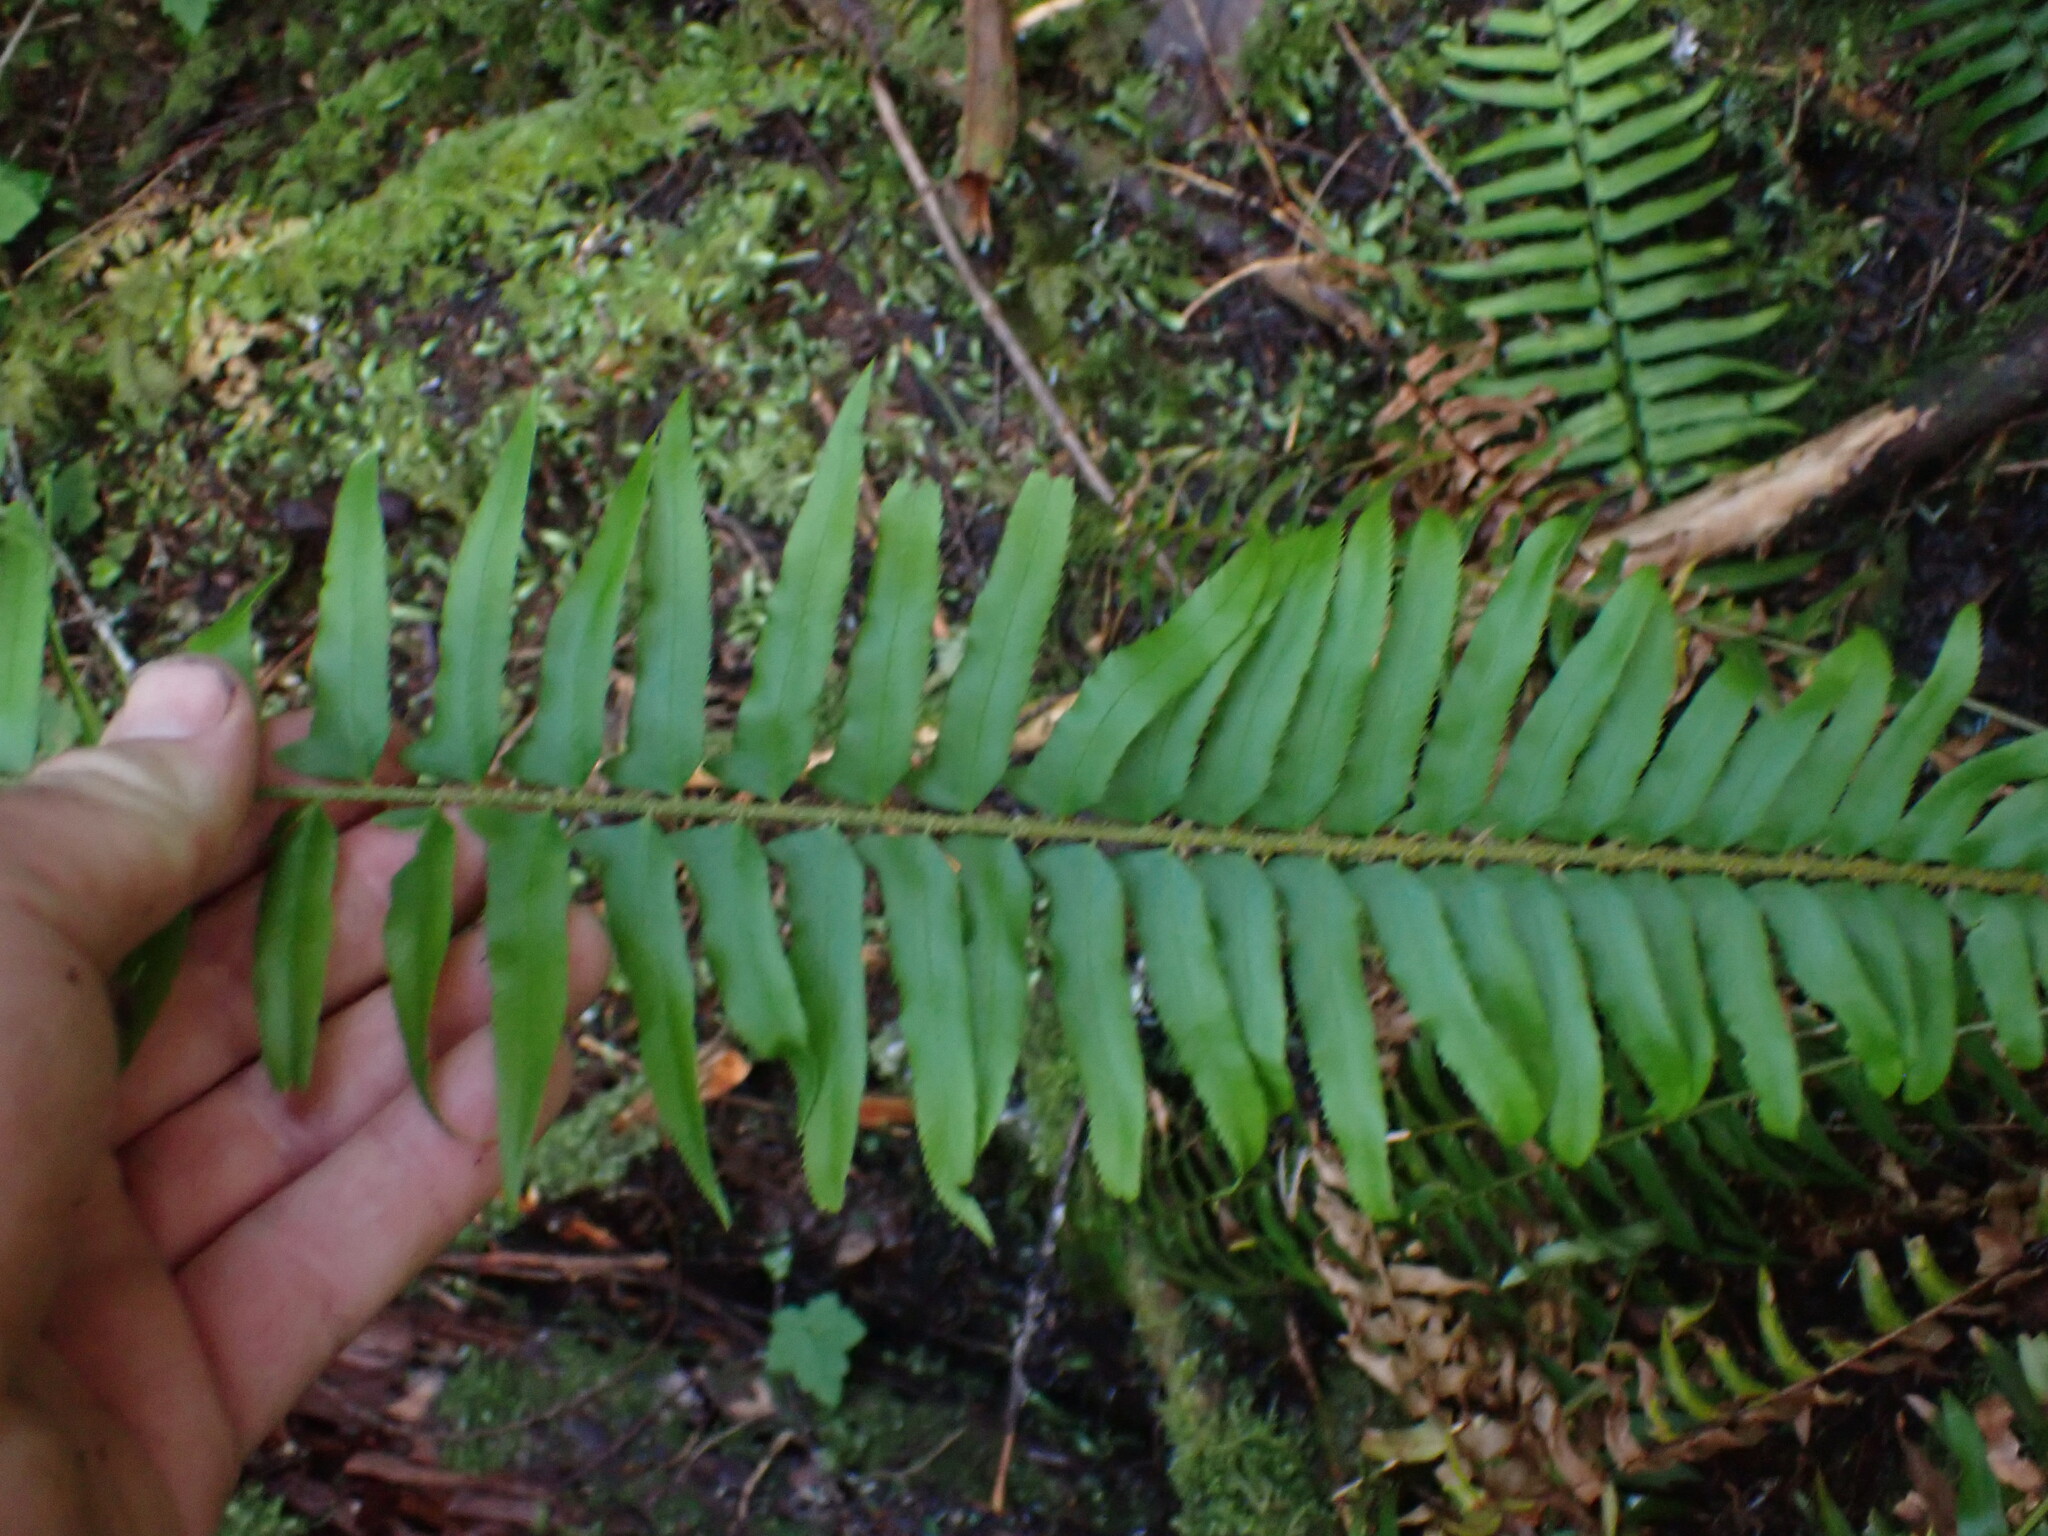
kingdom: Plantae
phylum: Tracheophyta
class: Polypodiopsida
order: Polypodiales
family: Dryopteridaceae
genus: Polystichum
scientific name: Polystichum munitum
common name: Western sword-fern
